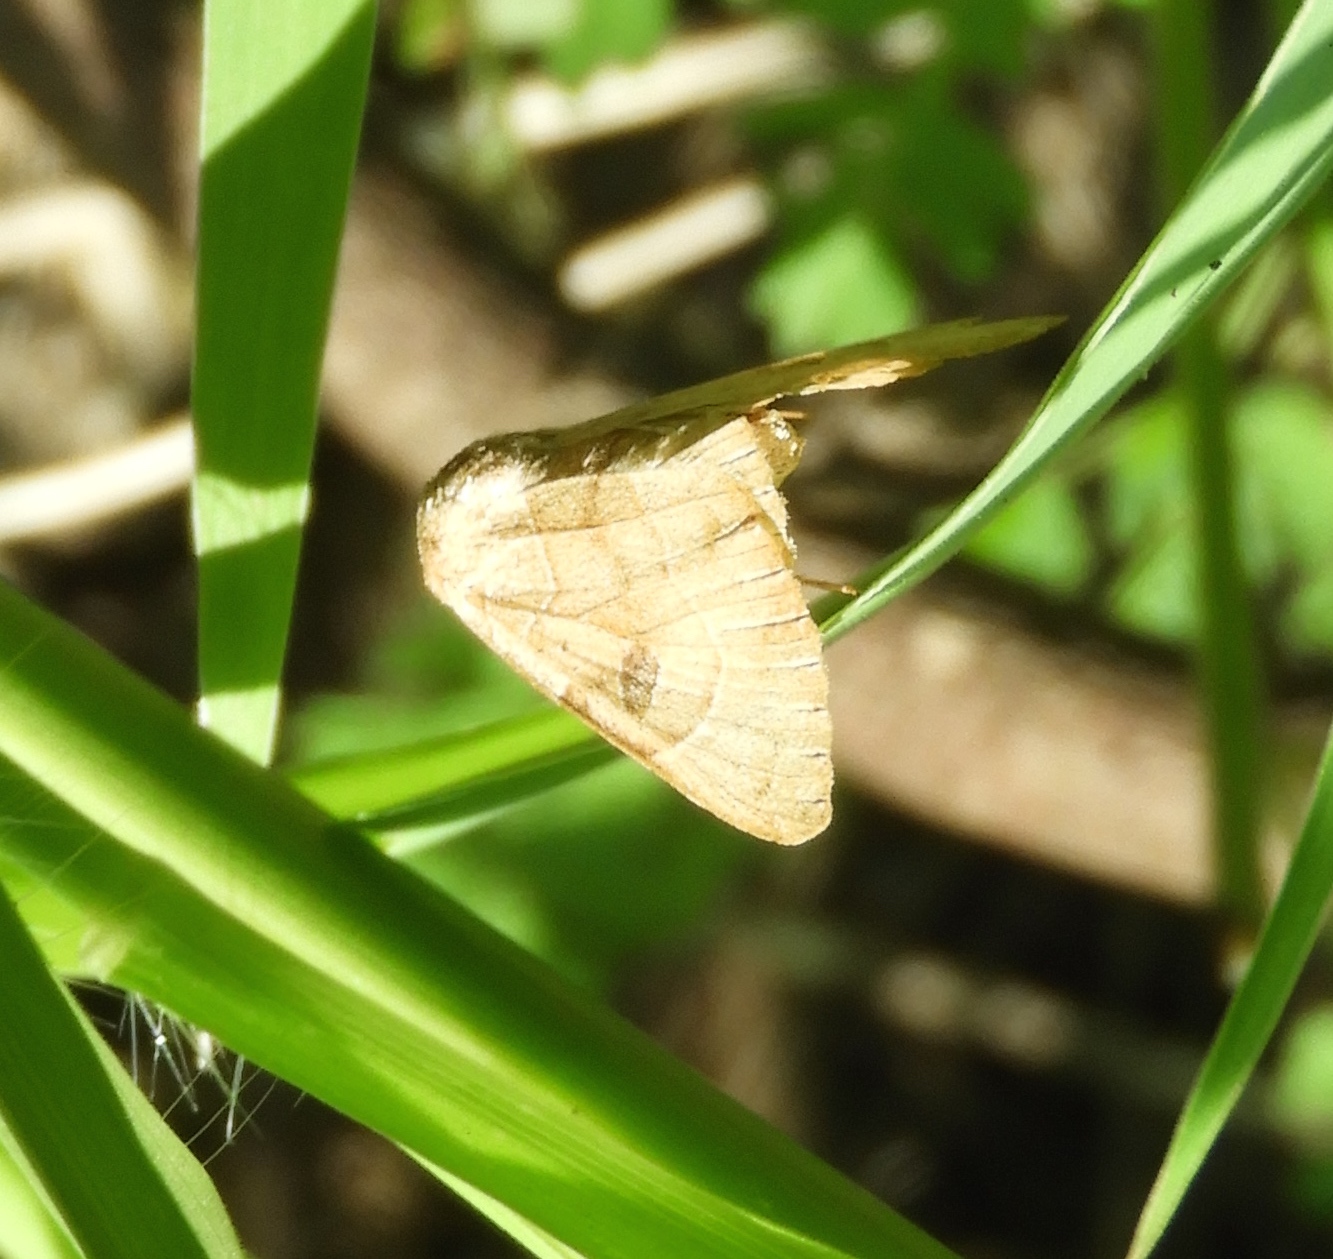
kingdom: Animalia
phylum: Arthropoda
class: Insecta
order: Lepidoptera
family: Erebidae
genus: Isogona
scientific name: Isogona scindens
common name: Owlet moth
